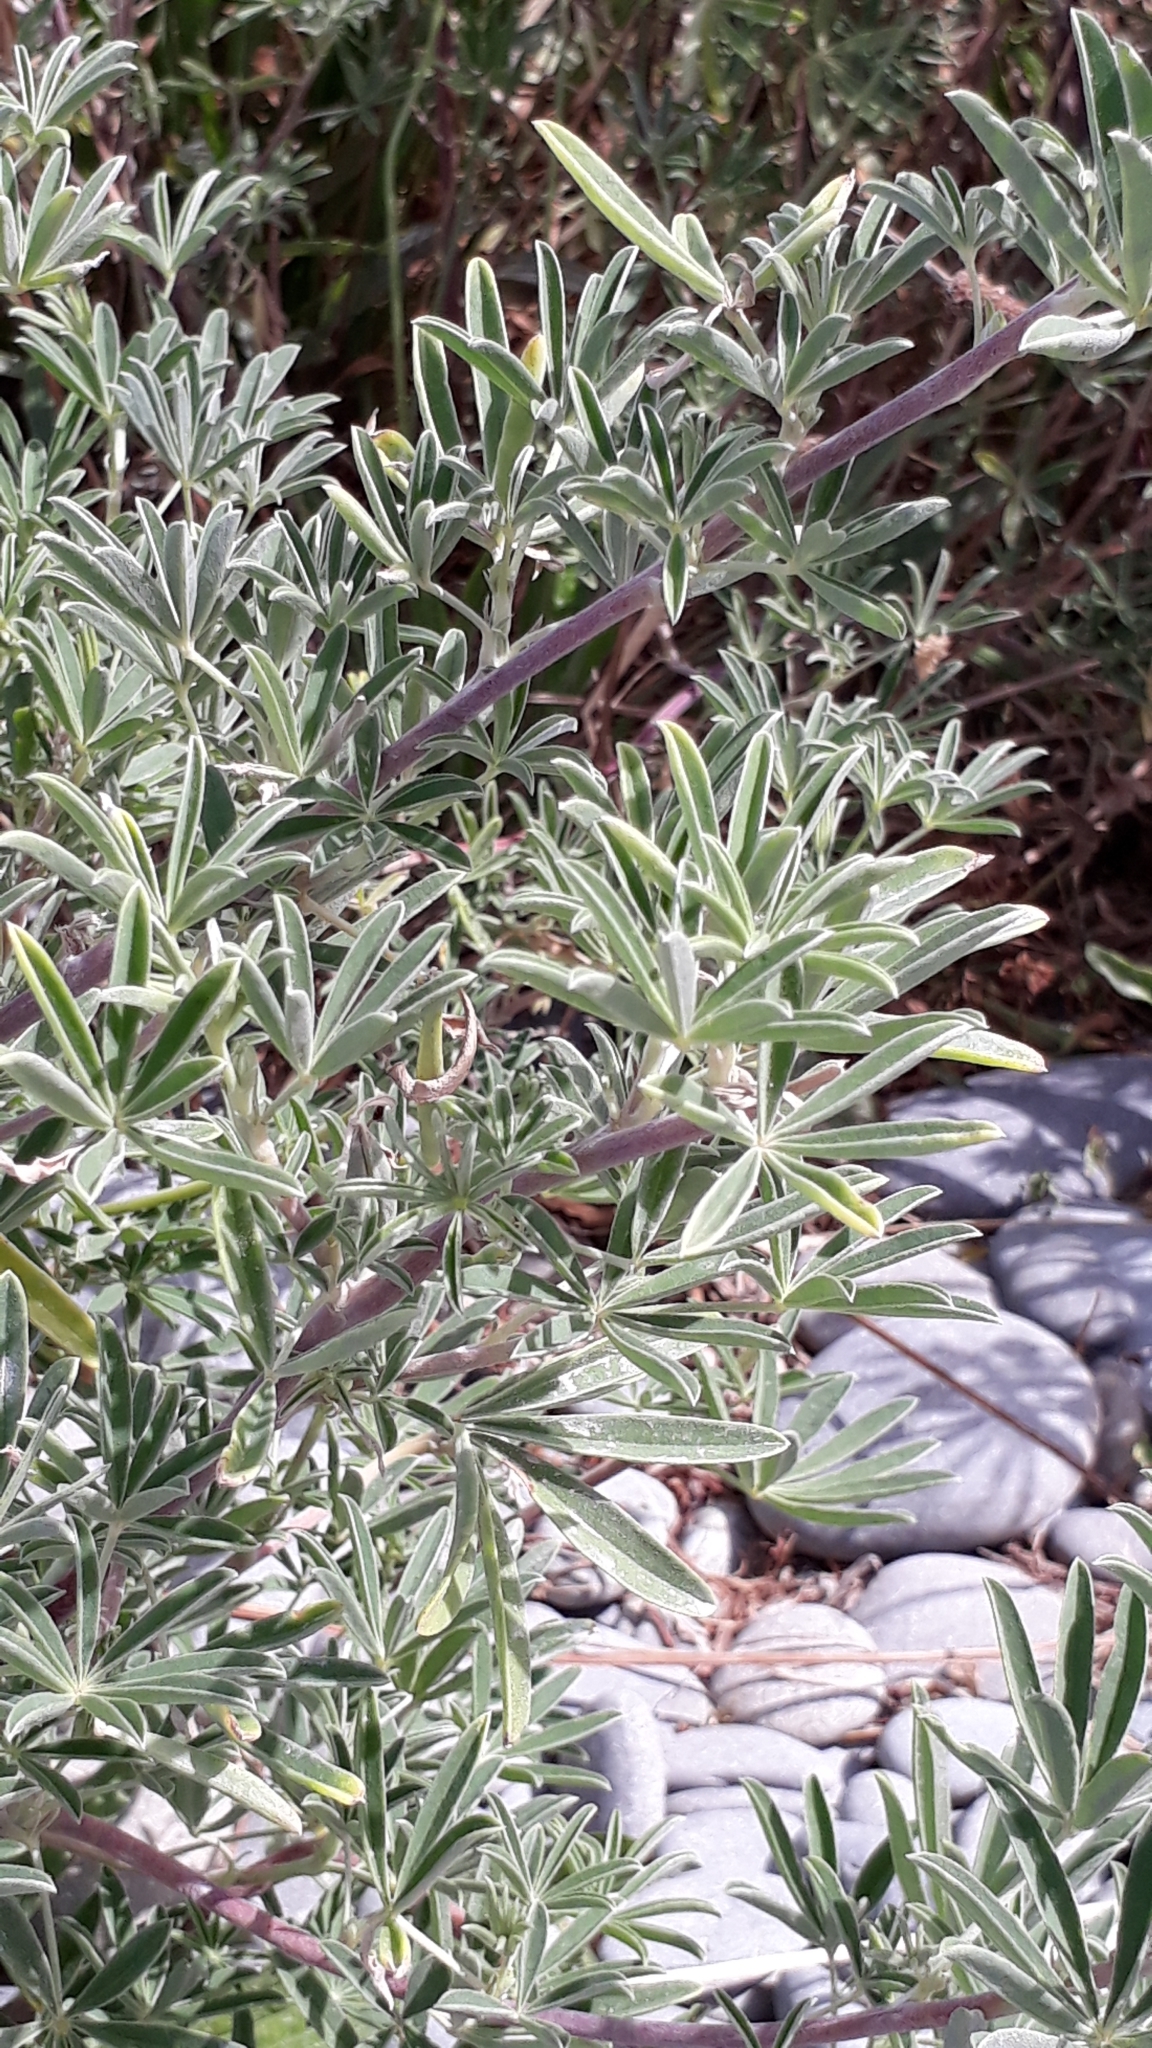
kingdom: Plantae
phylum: Tracheophyta
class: Magnoliopsida
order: Fabales
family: Fabaceae
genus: Lupinus
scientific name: Lupinus arboreus
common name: Yellow bush lupine
